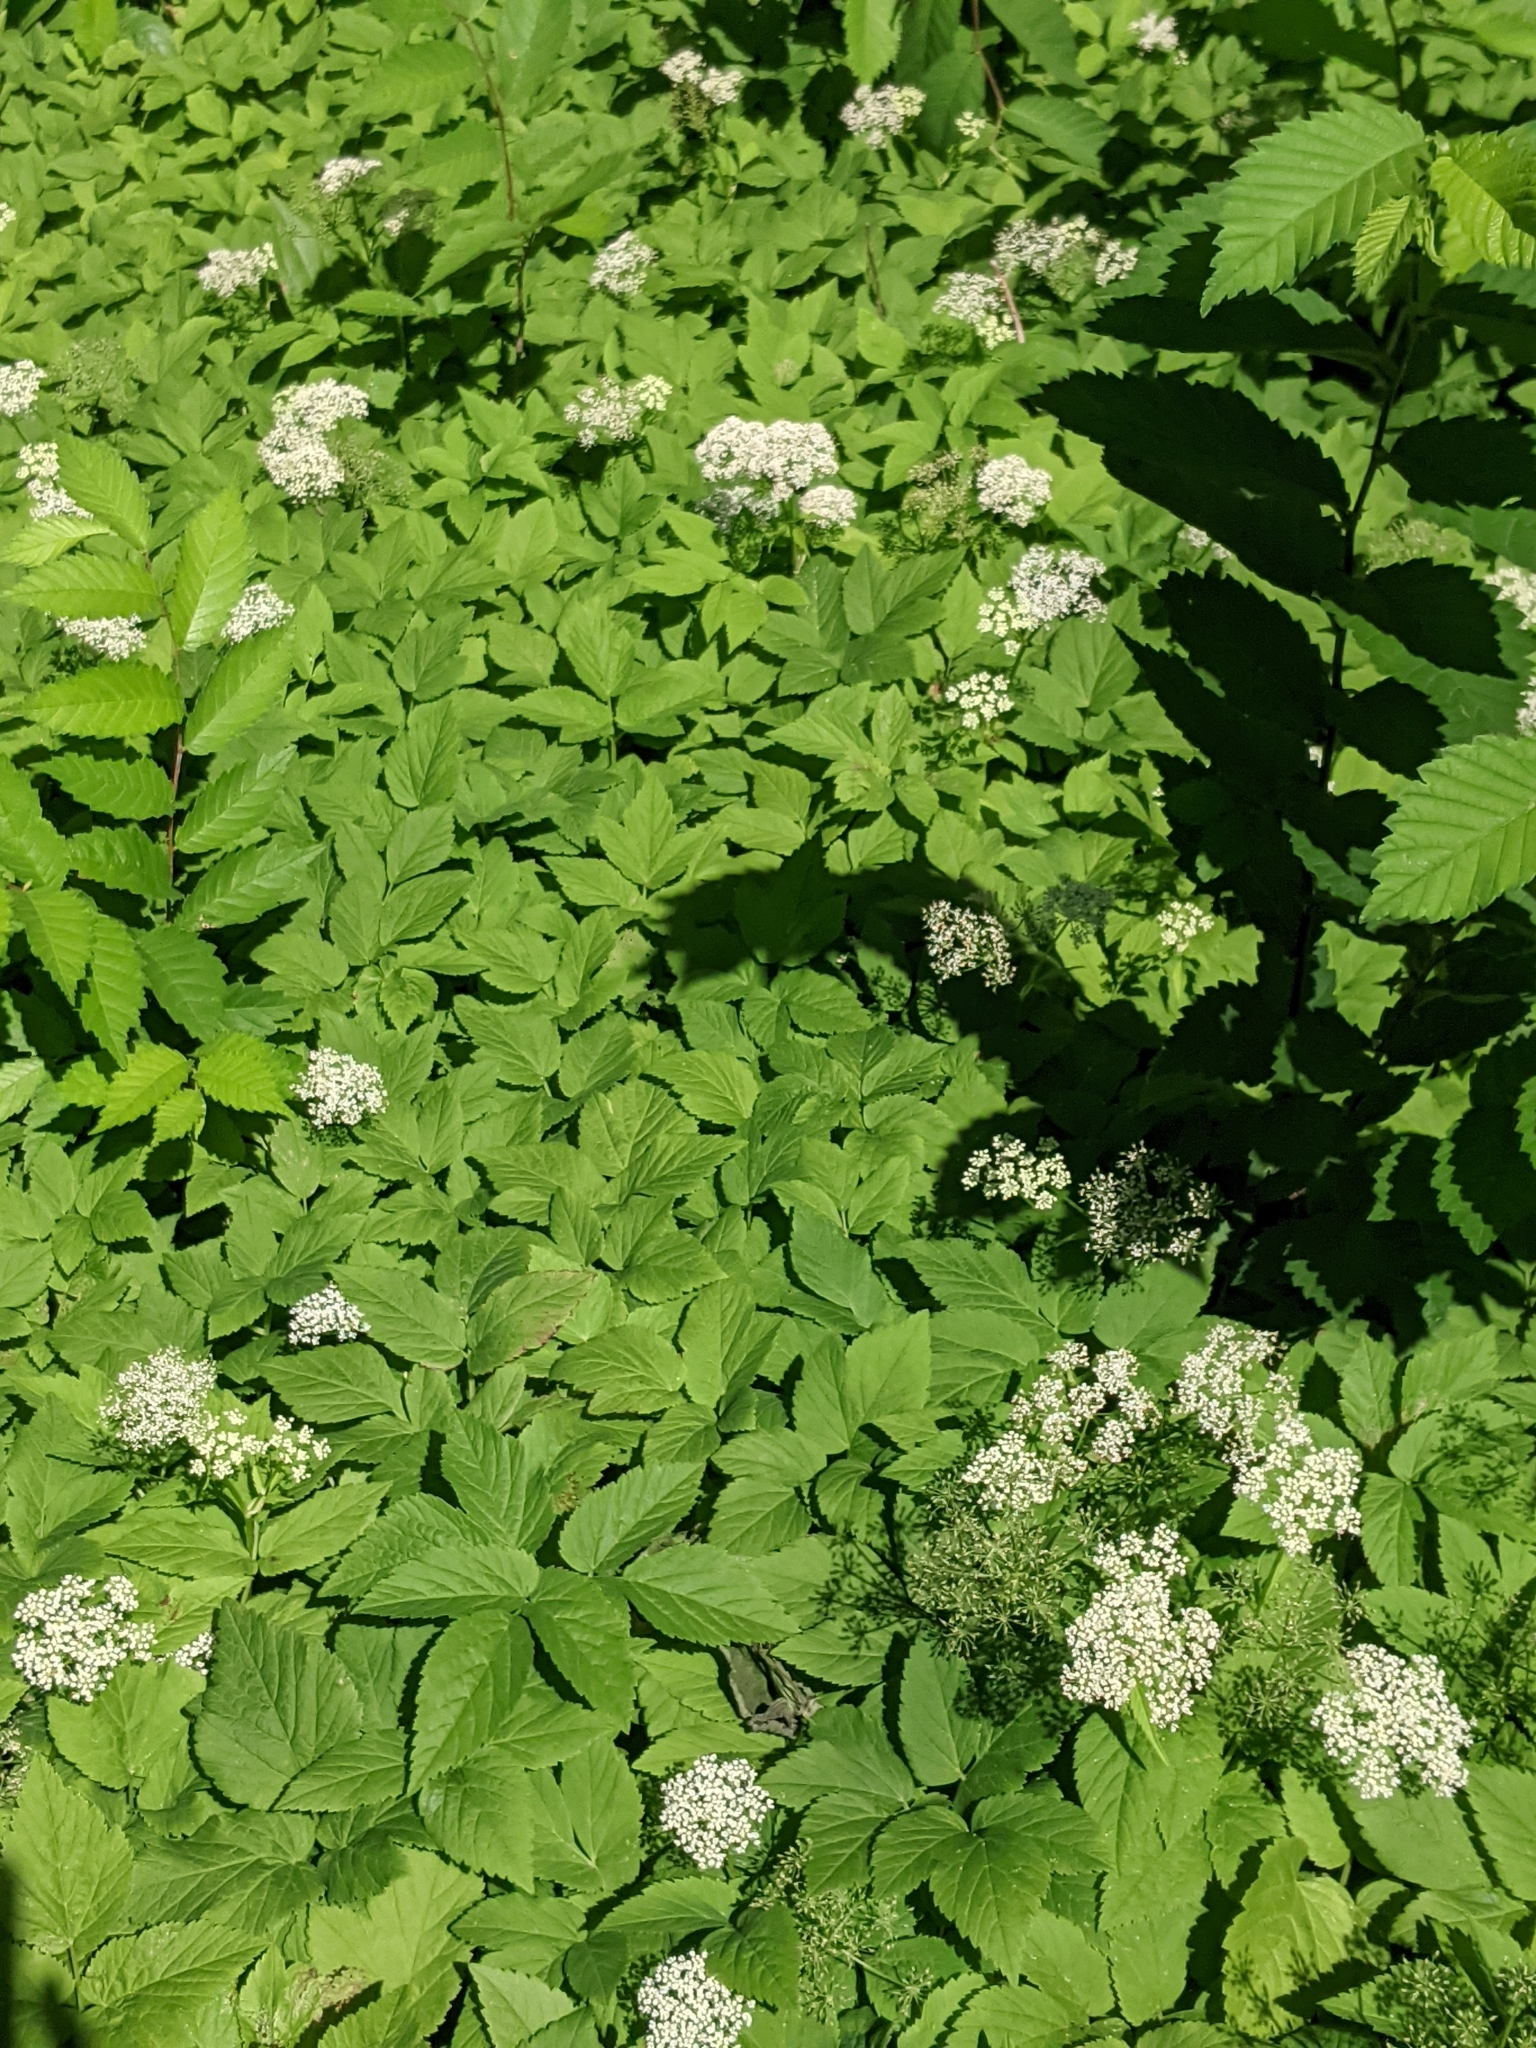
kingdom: Plantae
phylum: Tracheophyta
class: Magnoliopsida
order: Apiales
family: Apiaceae
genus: Aegopodium
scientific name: Aegopodium podagraria
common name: Ground-elder
